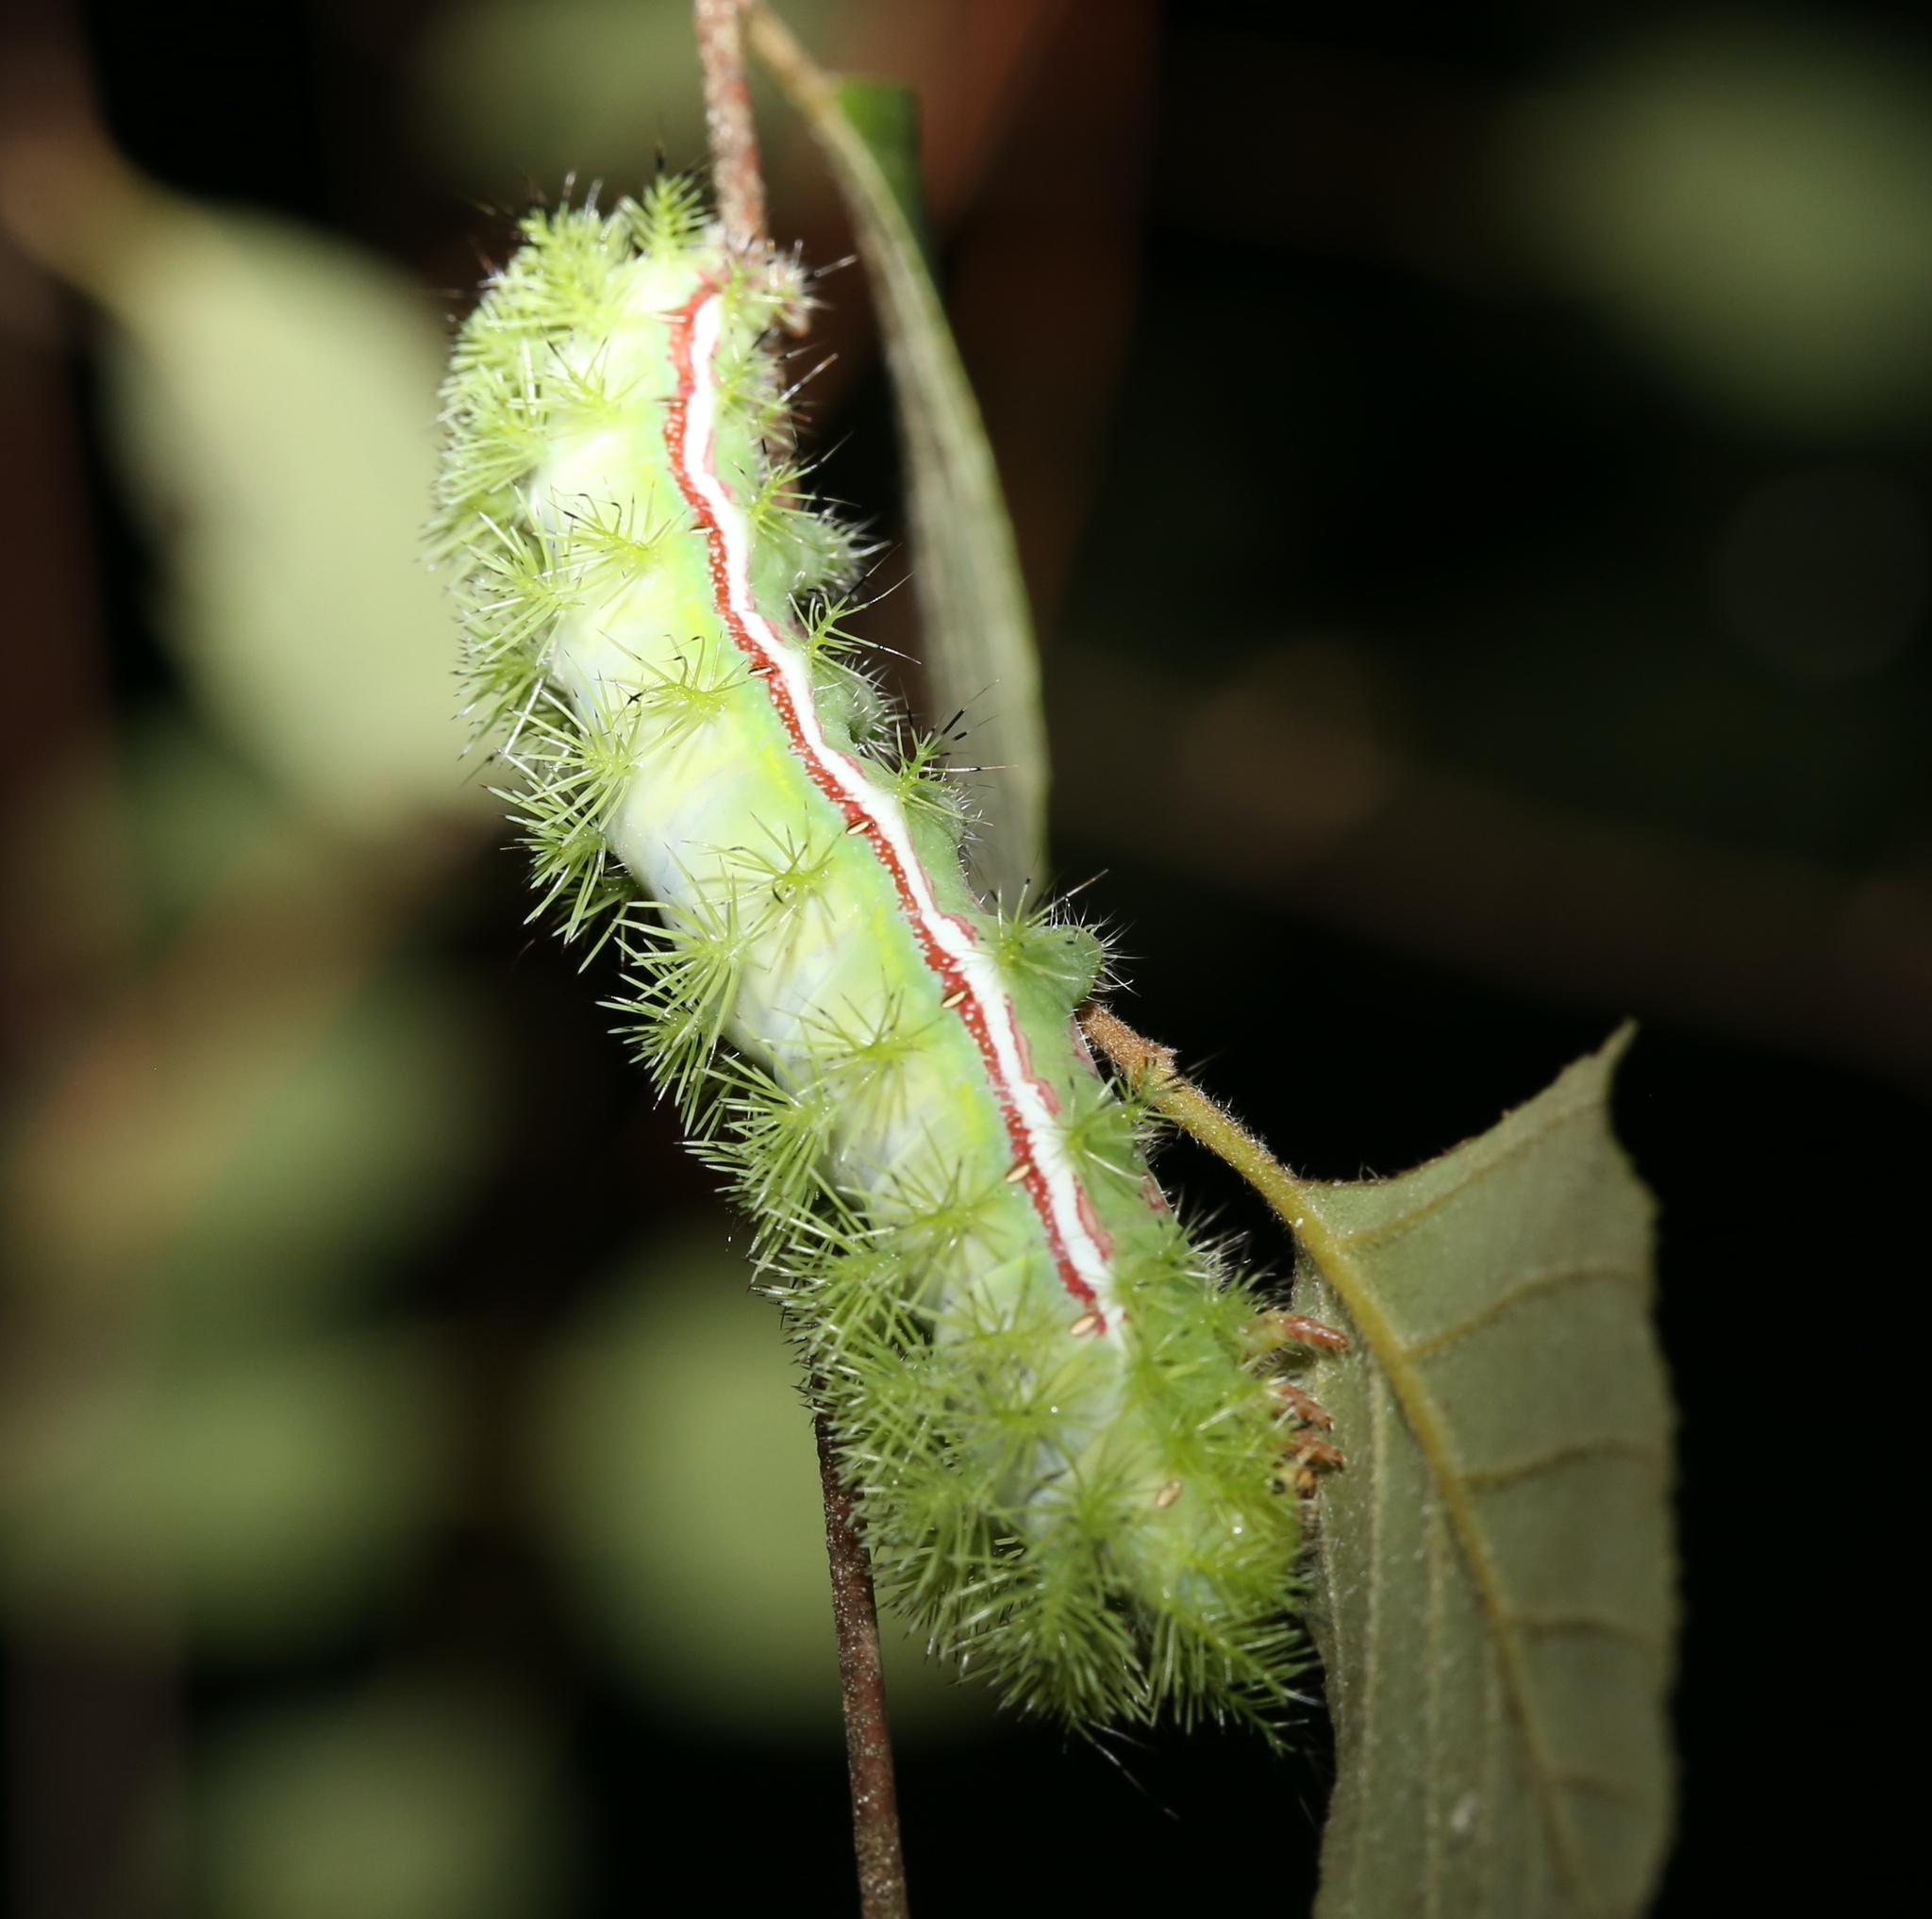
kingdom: Animalia
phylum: Arthropoda
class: Insecta
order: Lepidoptera
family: Saturniidae
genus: Automeris
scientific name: Automeris io
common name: Io moth
